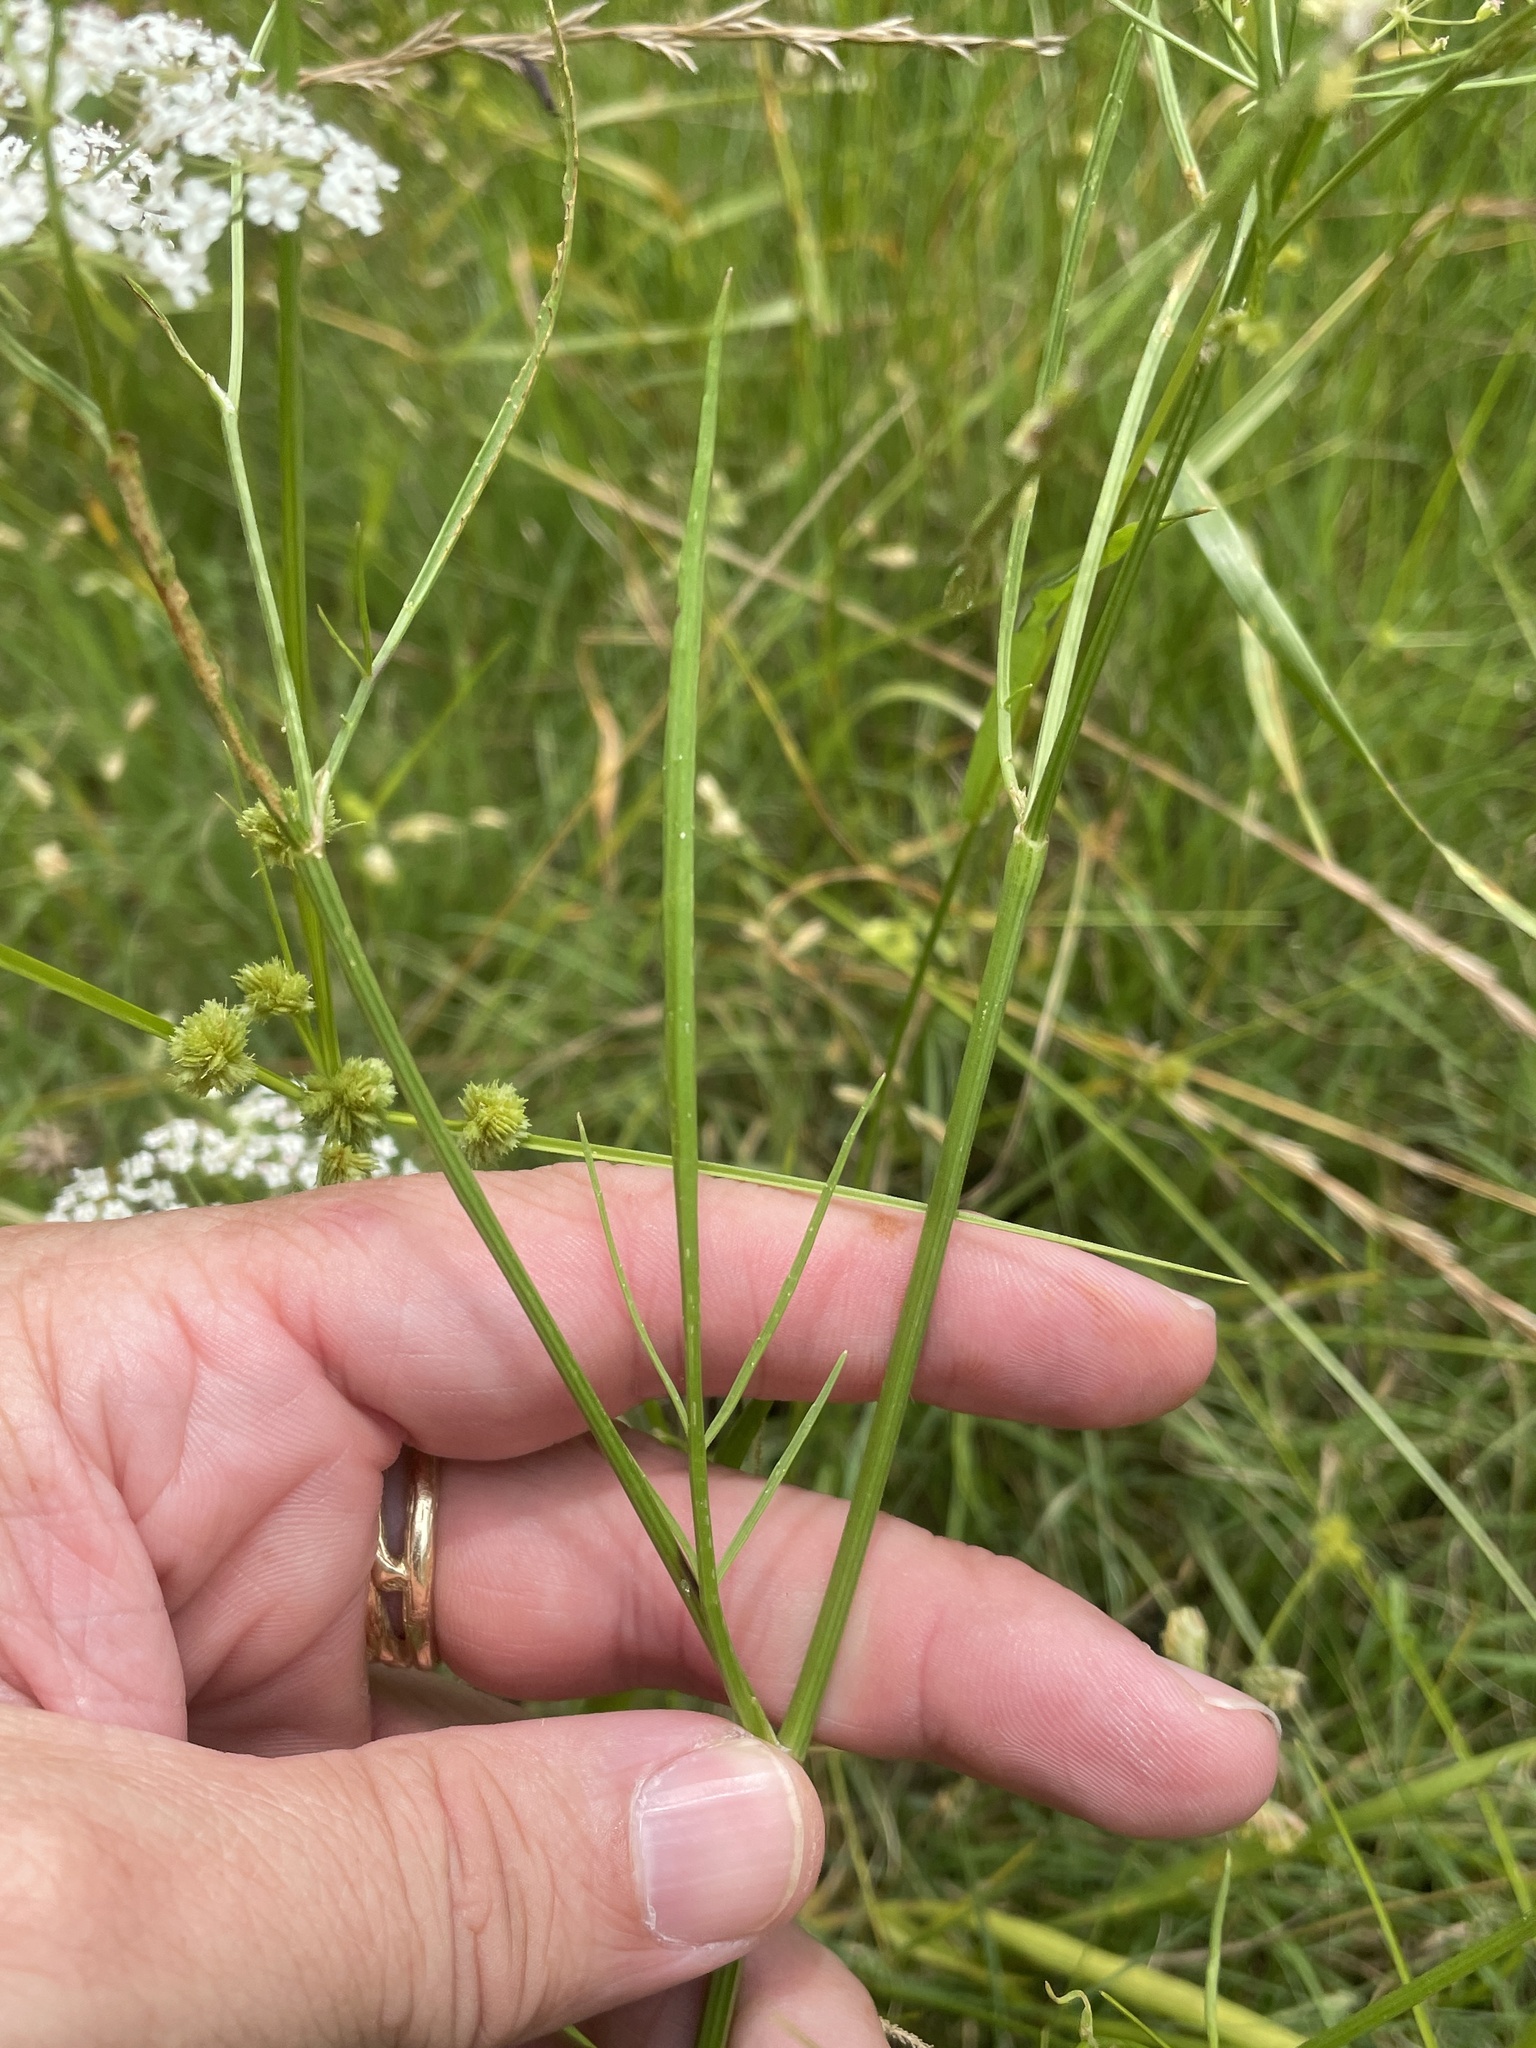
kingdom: Plantae
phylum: Tracheophyta
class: Magnoliopsida
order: Apiales
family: Apiaceae
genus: Limnosciadium
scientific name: Limnosciadium pinnatum
